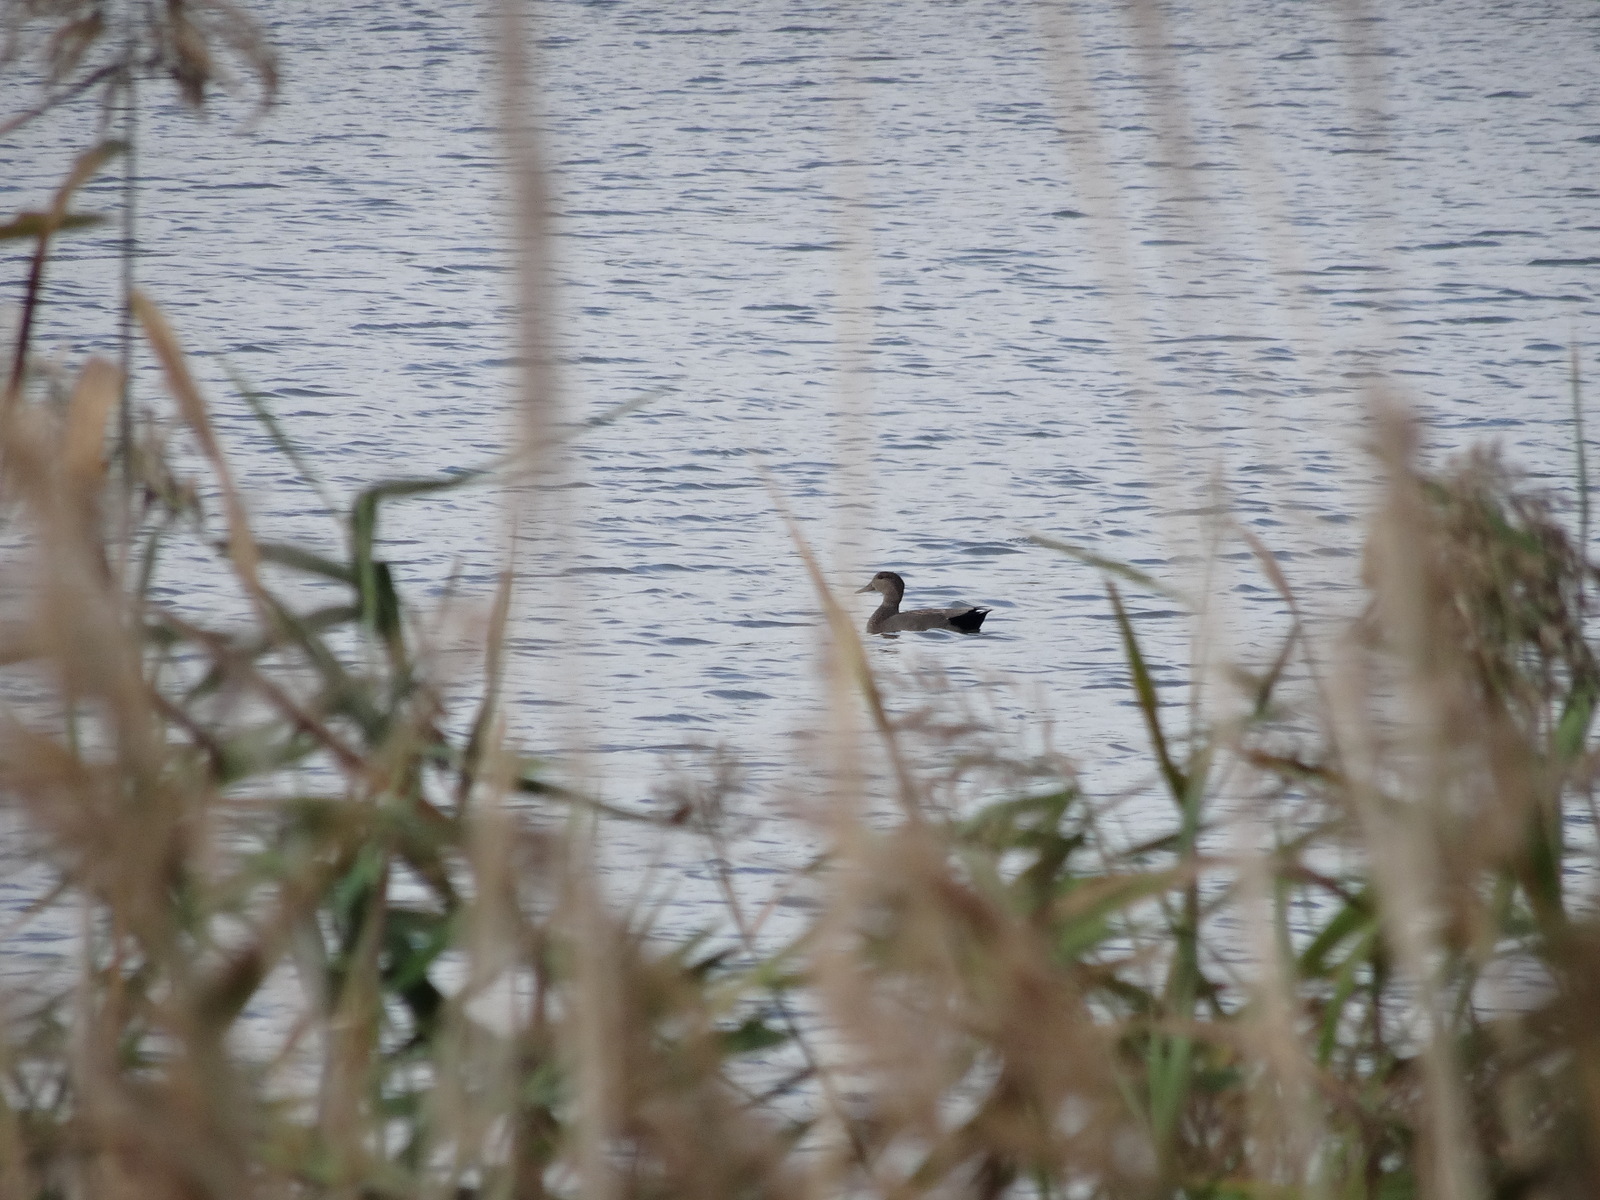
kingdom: Animalia
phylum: Chordata
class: Aves
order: Anseriformes
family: Anatidae
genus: Mareca
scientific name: Mareca strepera
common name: Gadwall
